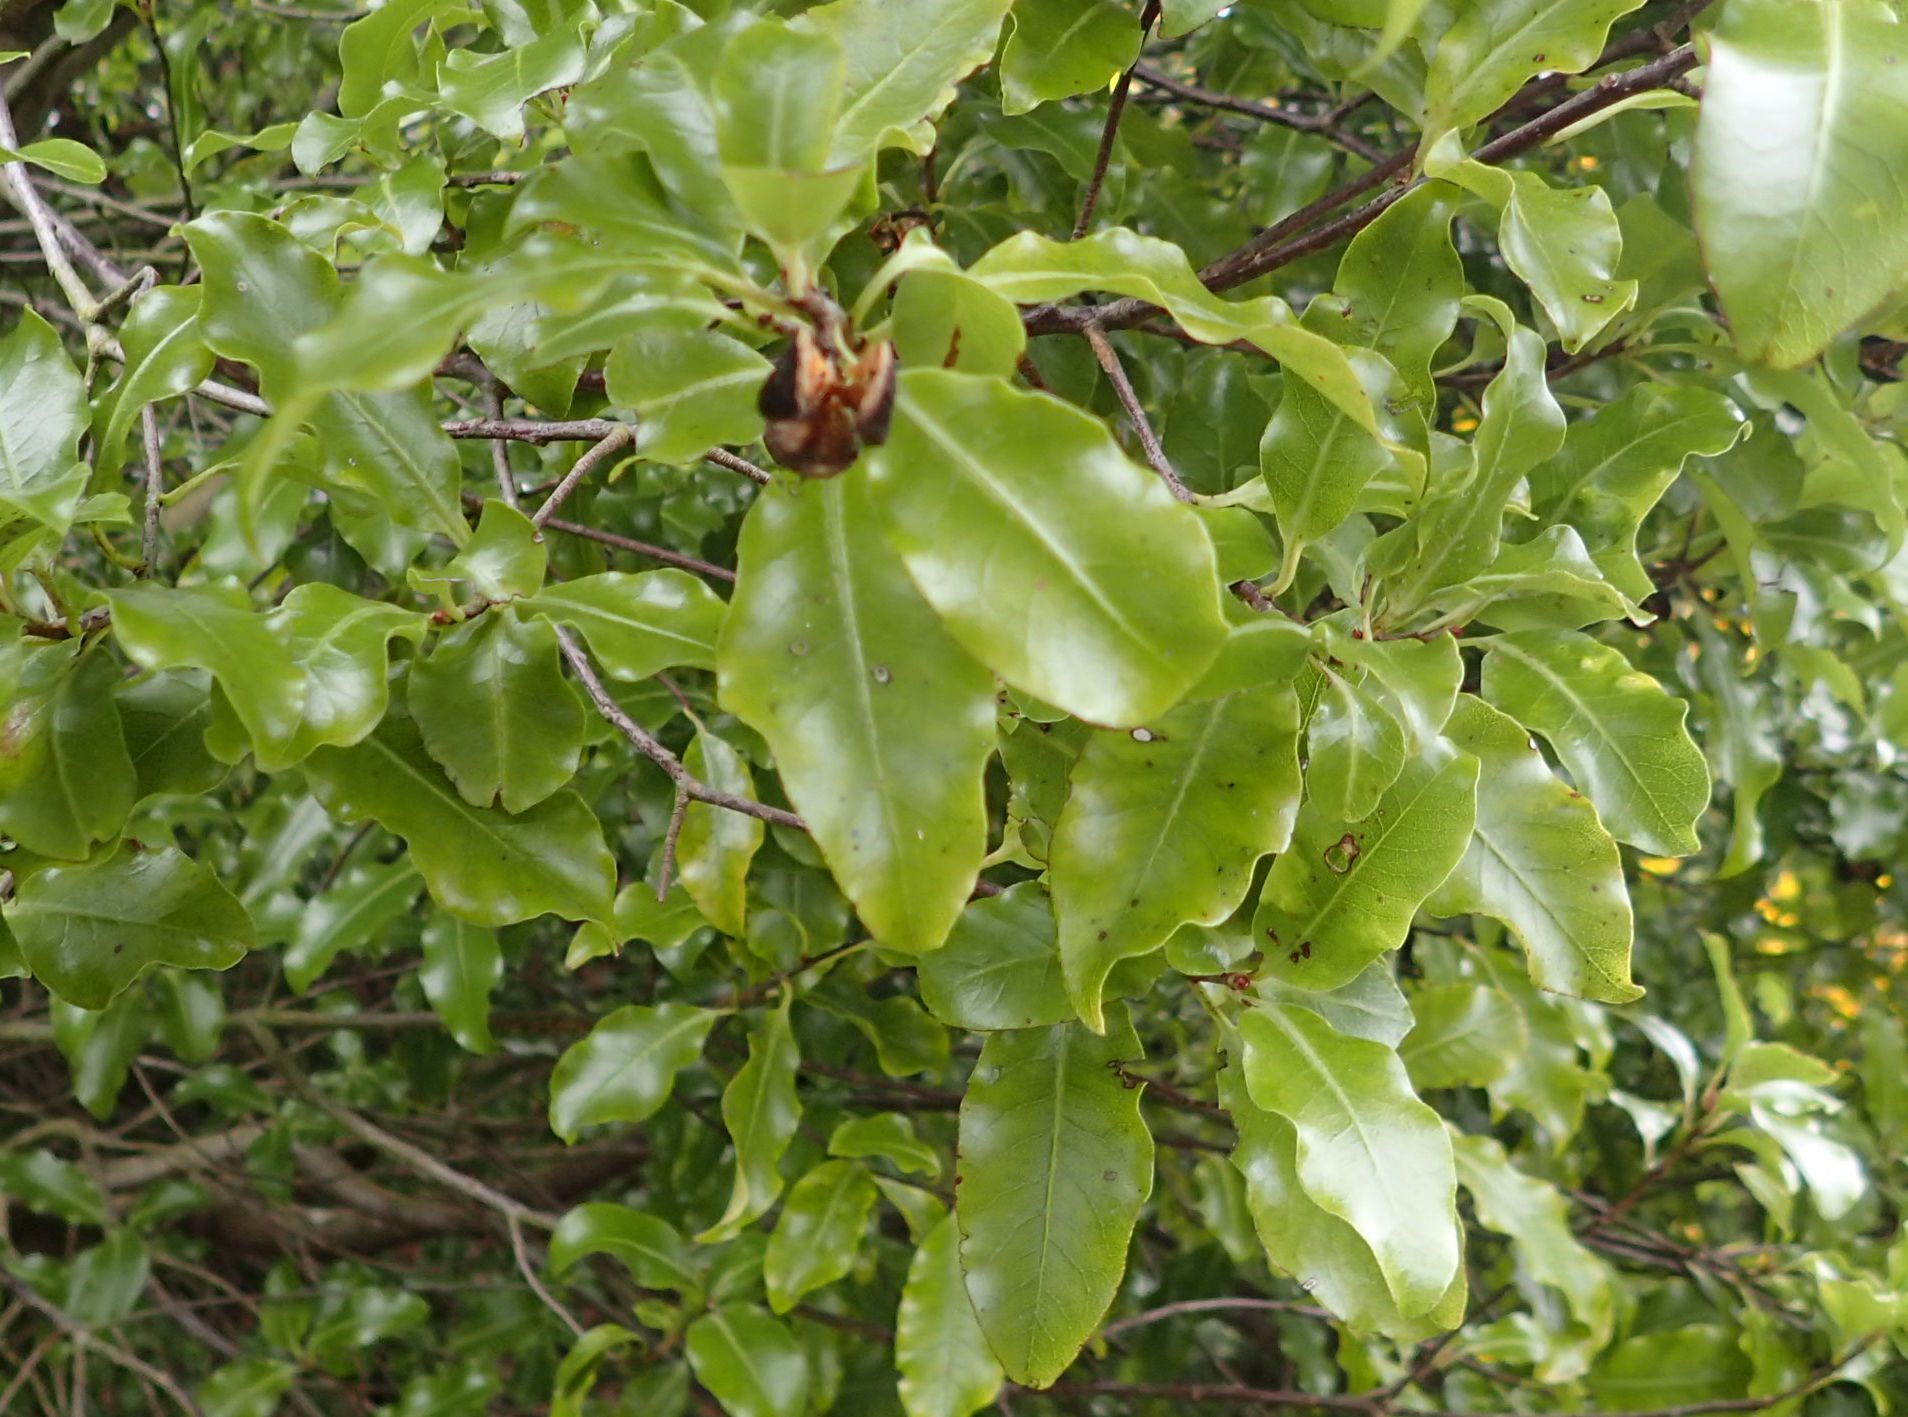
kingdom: Plantae
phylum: Tracheophyta
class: Magnoliopsida
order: Apiales
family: Pittosporaceae
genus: Pittosporum
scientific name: Pittosporum tenuifolium
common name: Kohuhu
